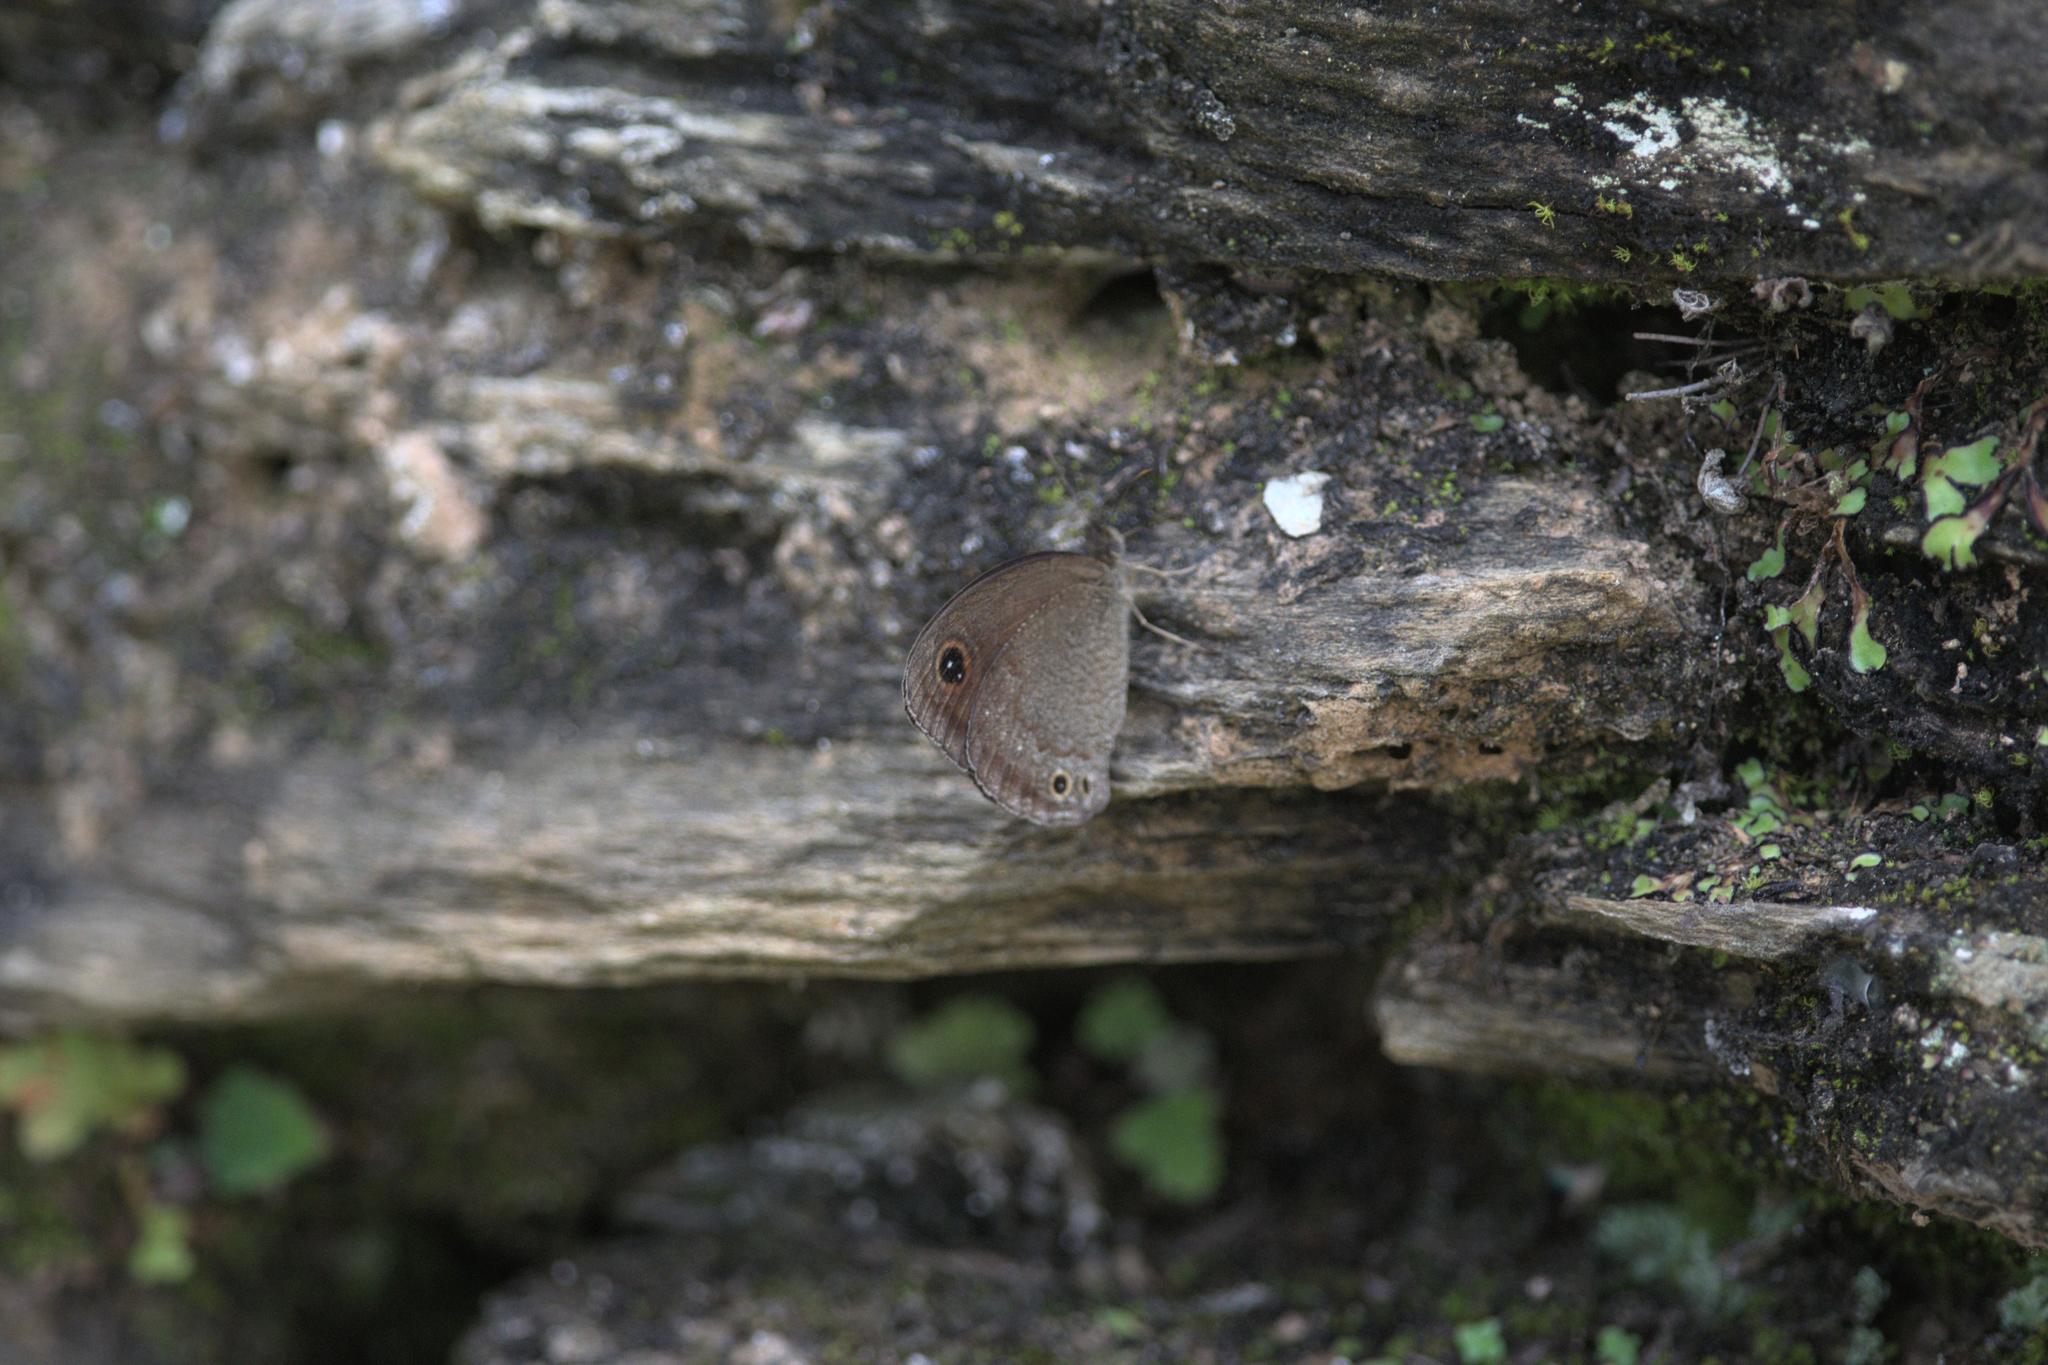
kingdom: Animalia
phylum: Arthropoda
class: Insecta
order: Lepidoptera
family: Nymphalidae
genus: Callerebia
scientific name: Callerebia hybrida
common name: Hybrid argus
